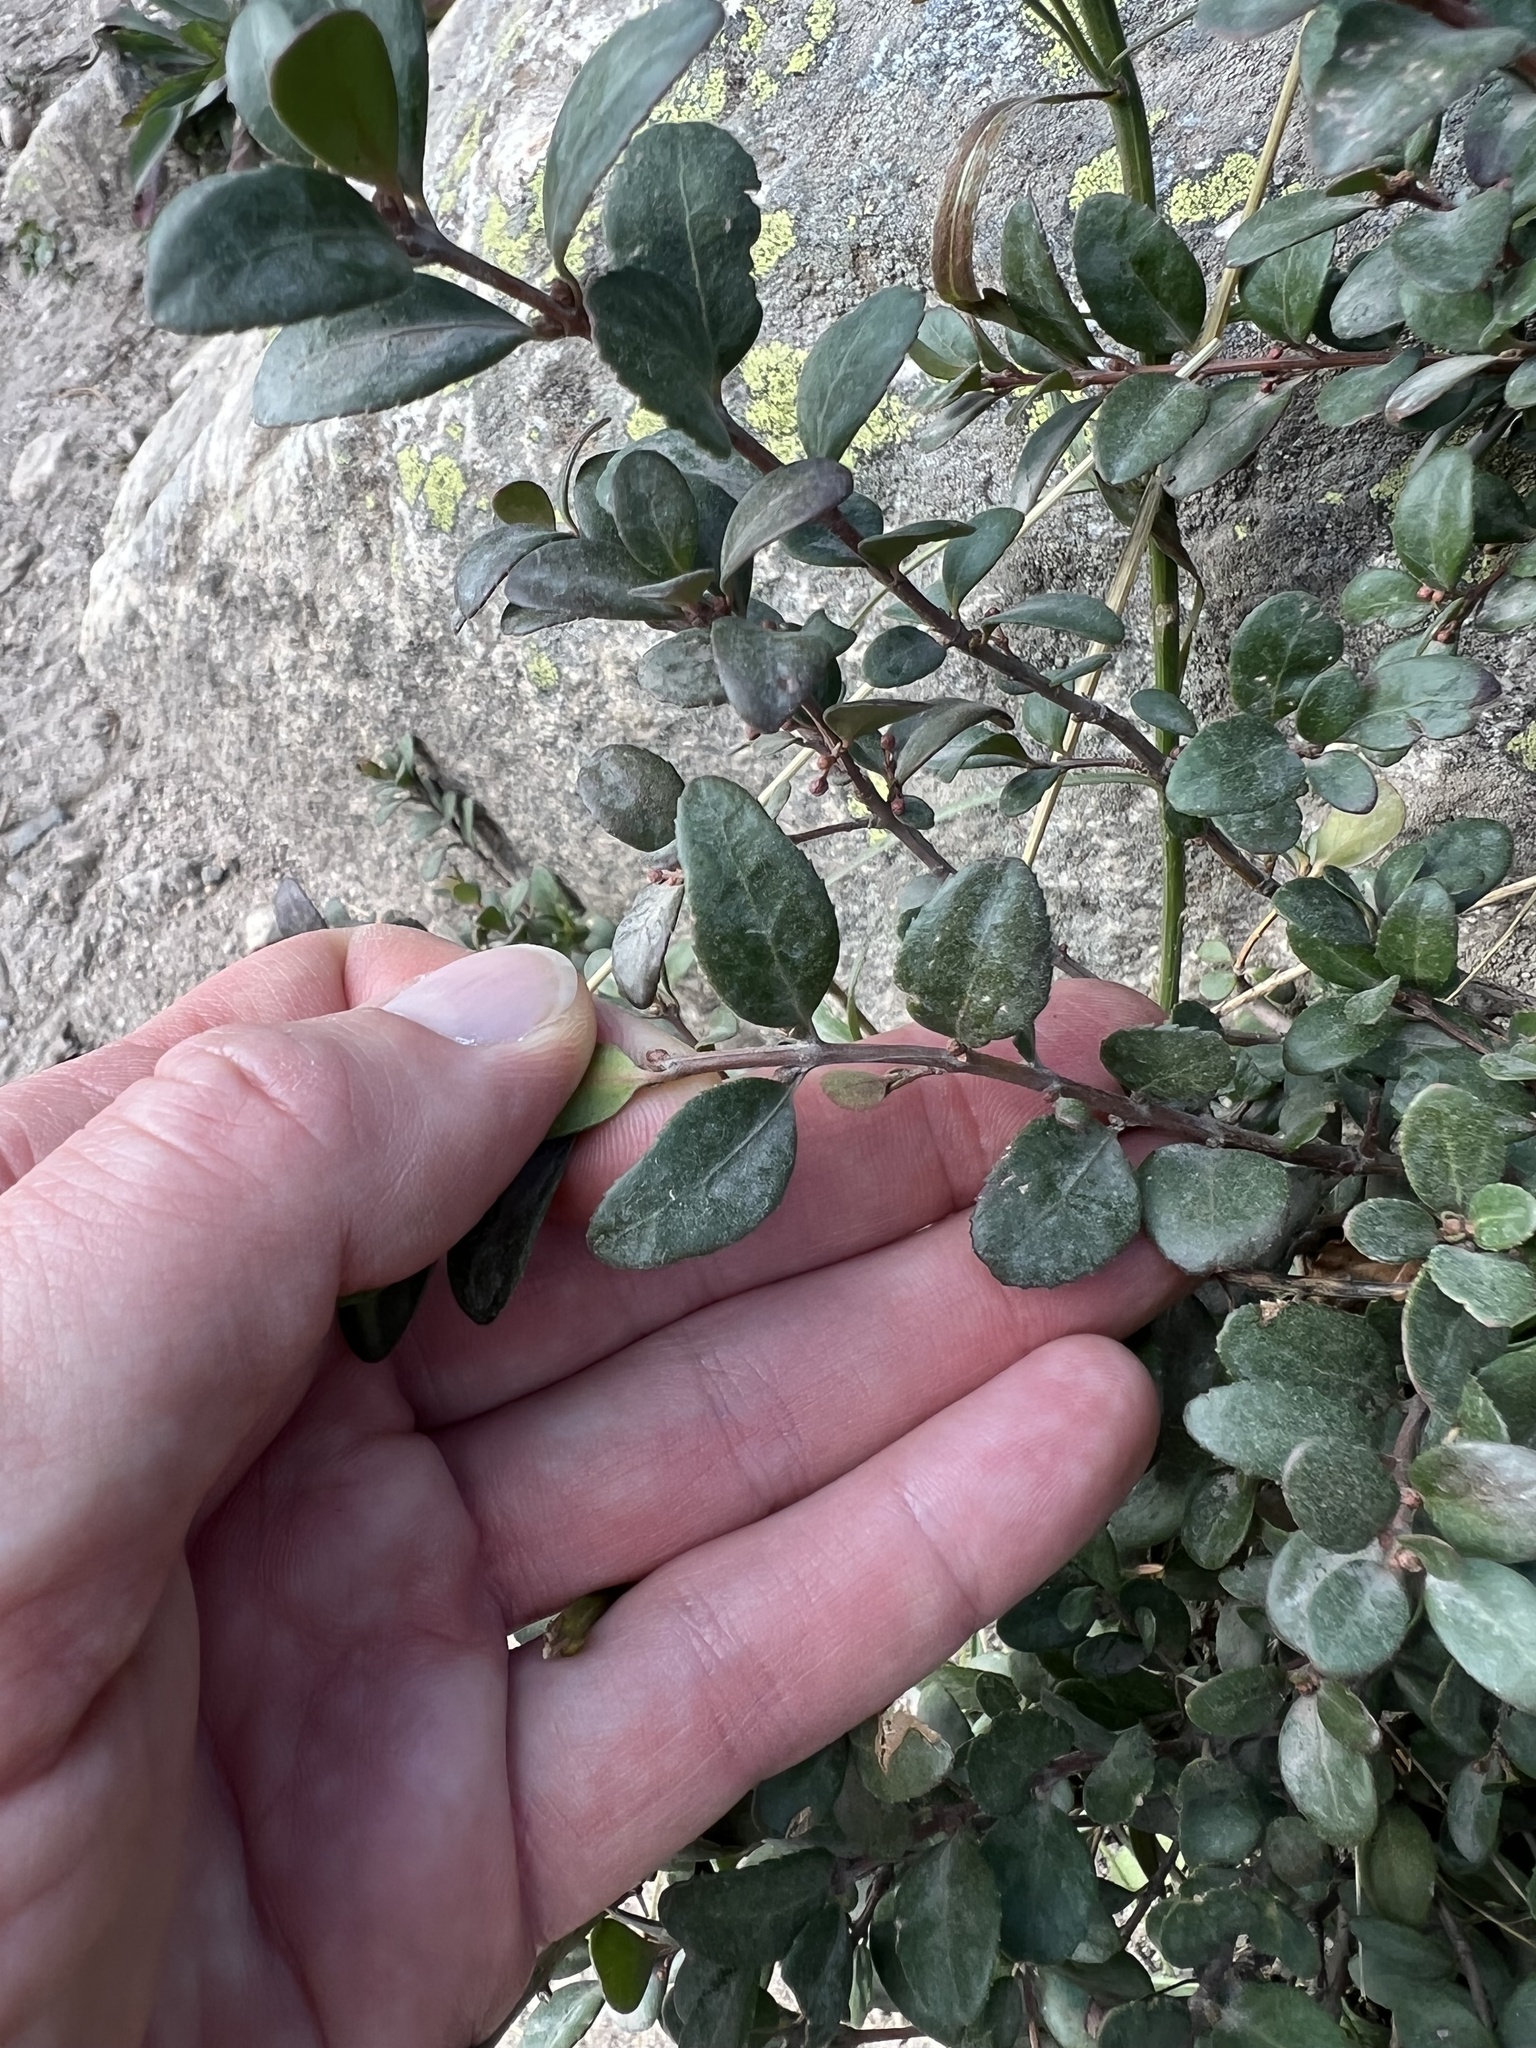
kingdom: Plantae
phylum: Tracheophyta
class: Magnoliopsida
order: Celastrales
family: Celastraceae
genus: Paxistima
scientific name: Paxistima myrsinites
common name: Mountain-lover
